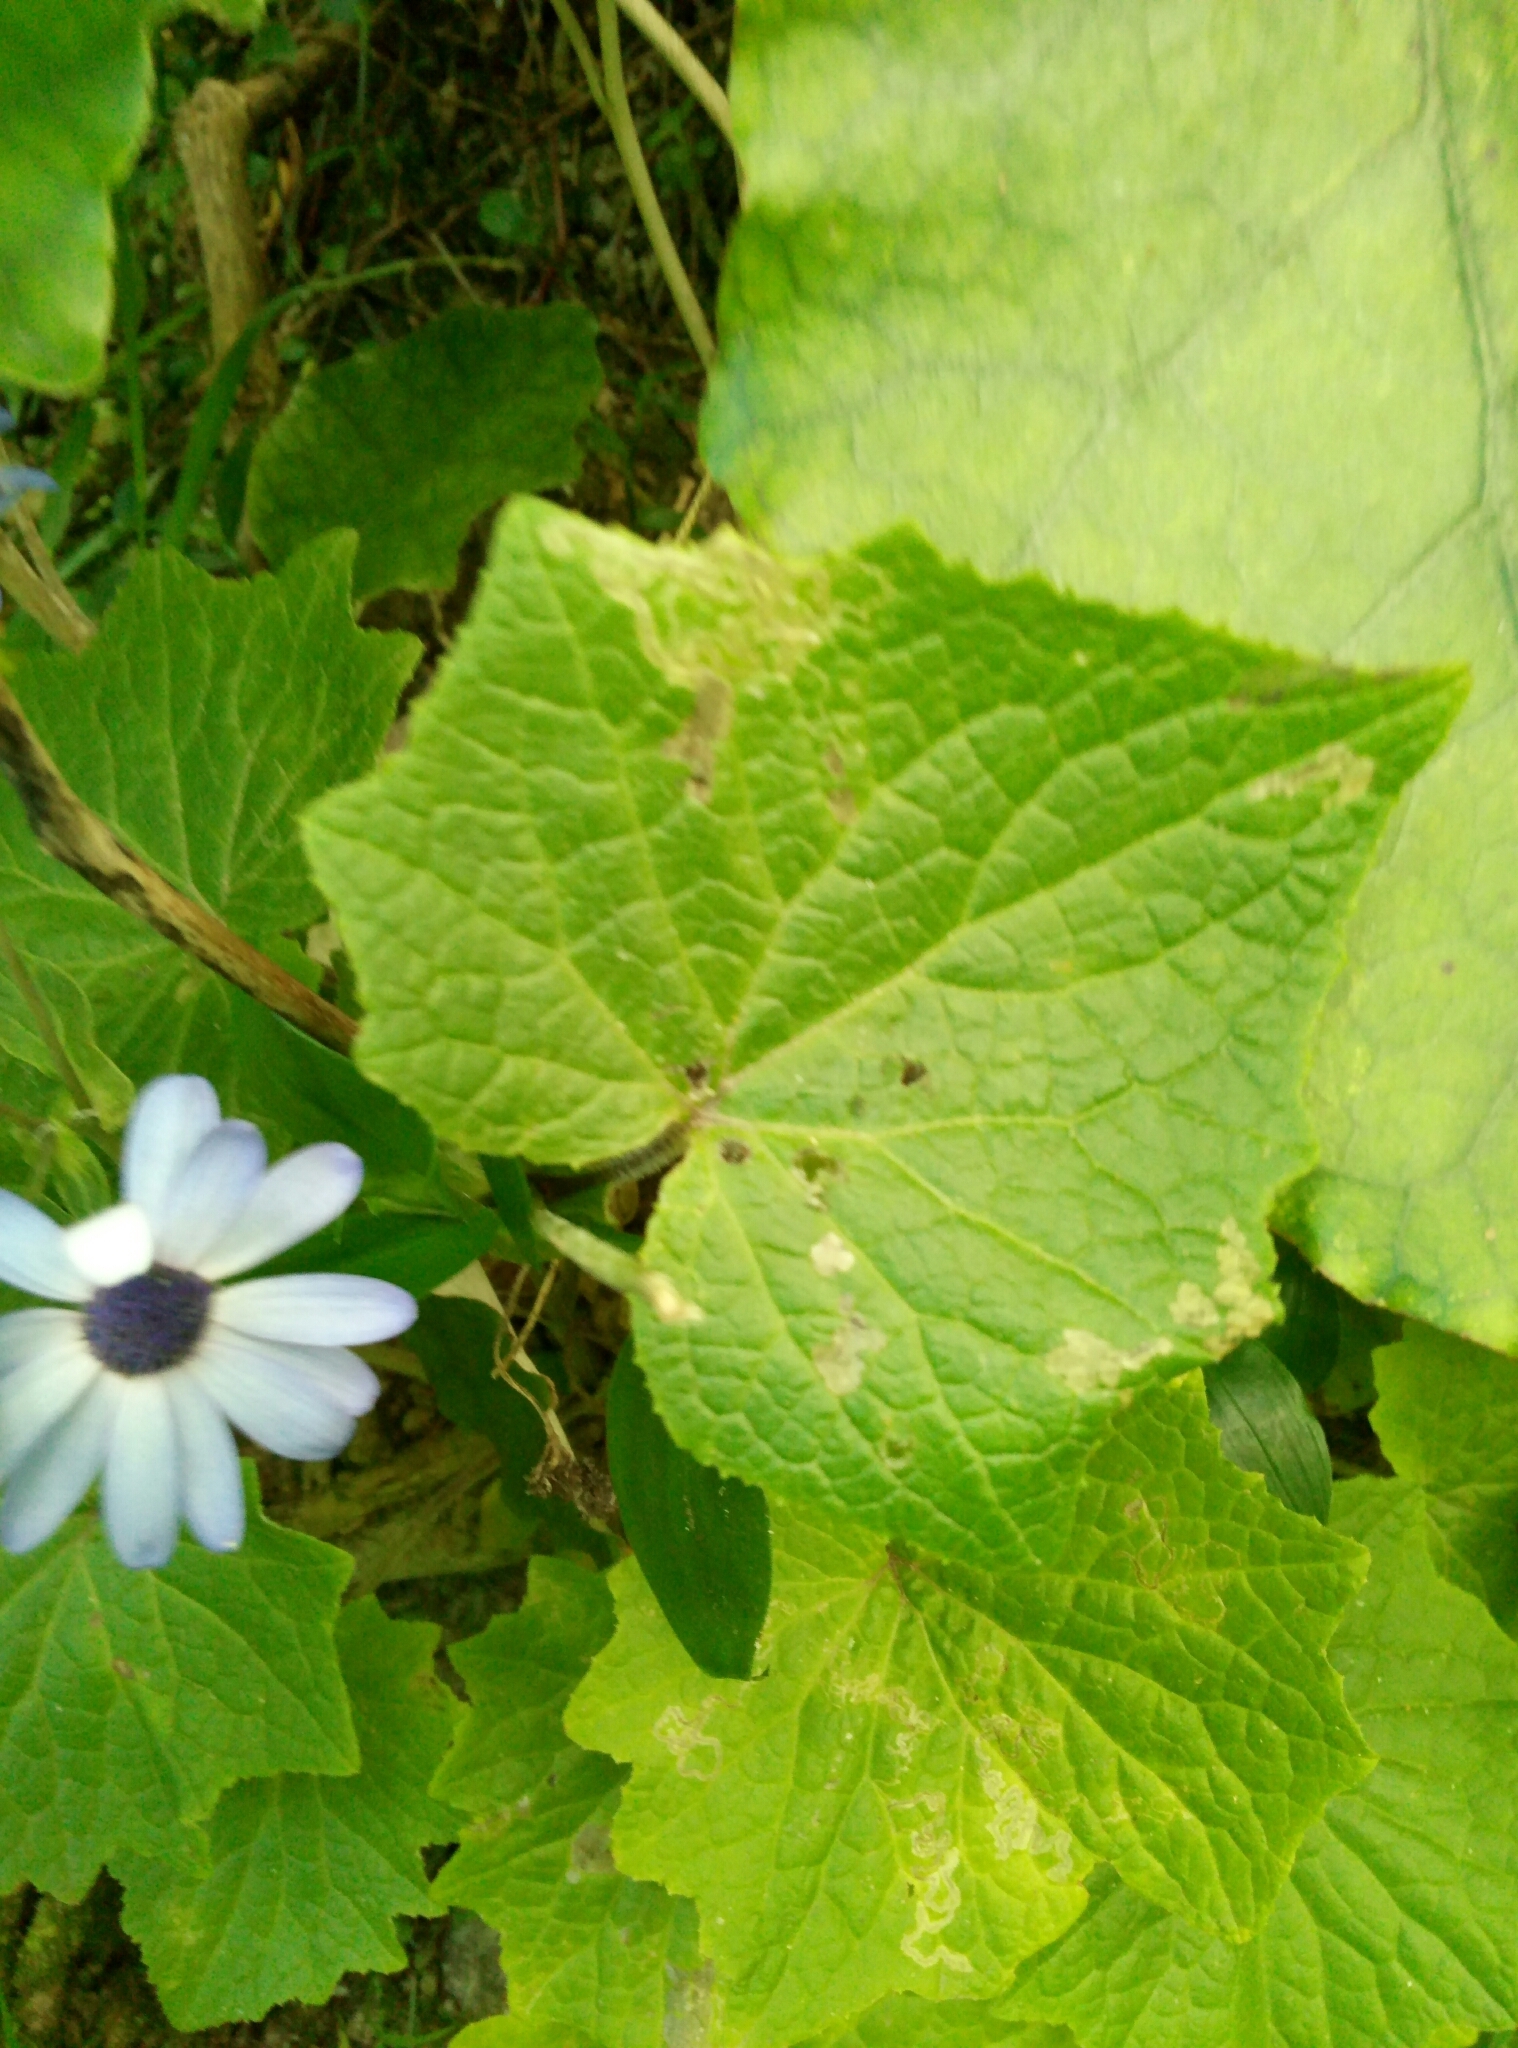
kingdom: Plantae
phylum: Tracheophyta
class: Magnoliopsida
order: Asterales
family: Asteraceae
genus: Pericallis
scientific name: Pericallis hybrida
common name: Cineraria
